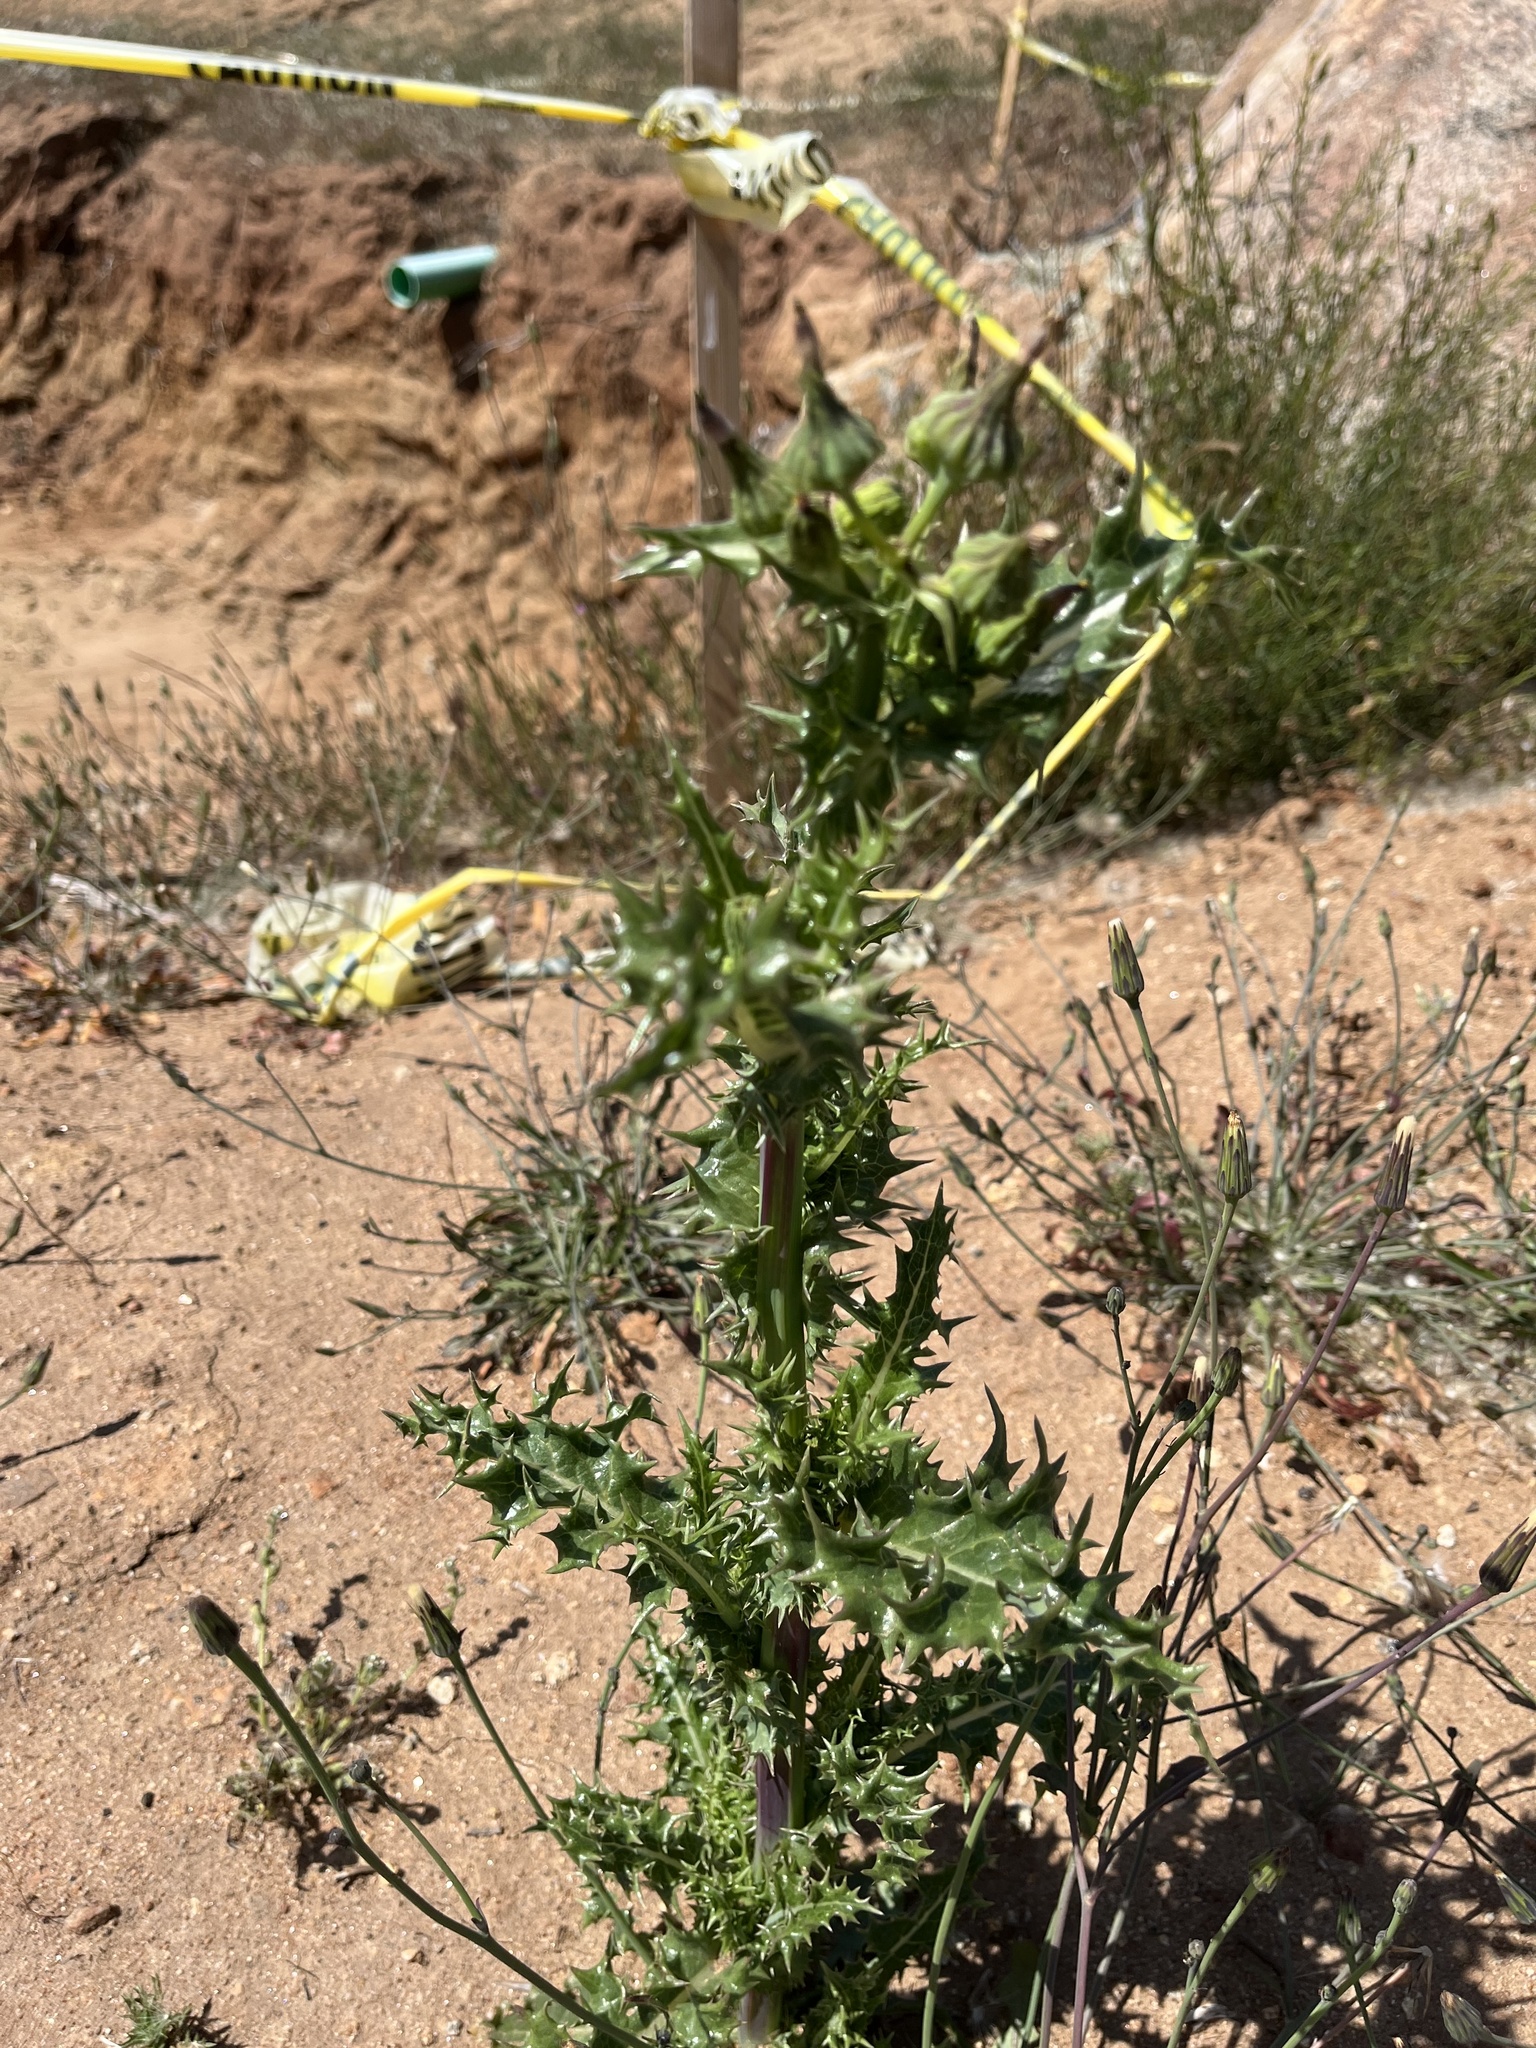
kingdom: Plantae
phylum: Tracheophyta
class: Magnoliopsida
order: Asterales
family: Asteraceae
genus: Sonchus
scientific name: Sonchus asper
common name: Prickly sow-thistle
